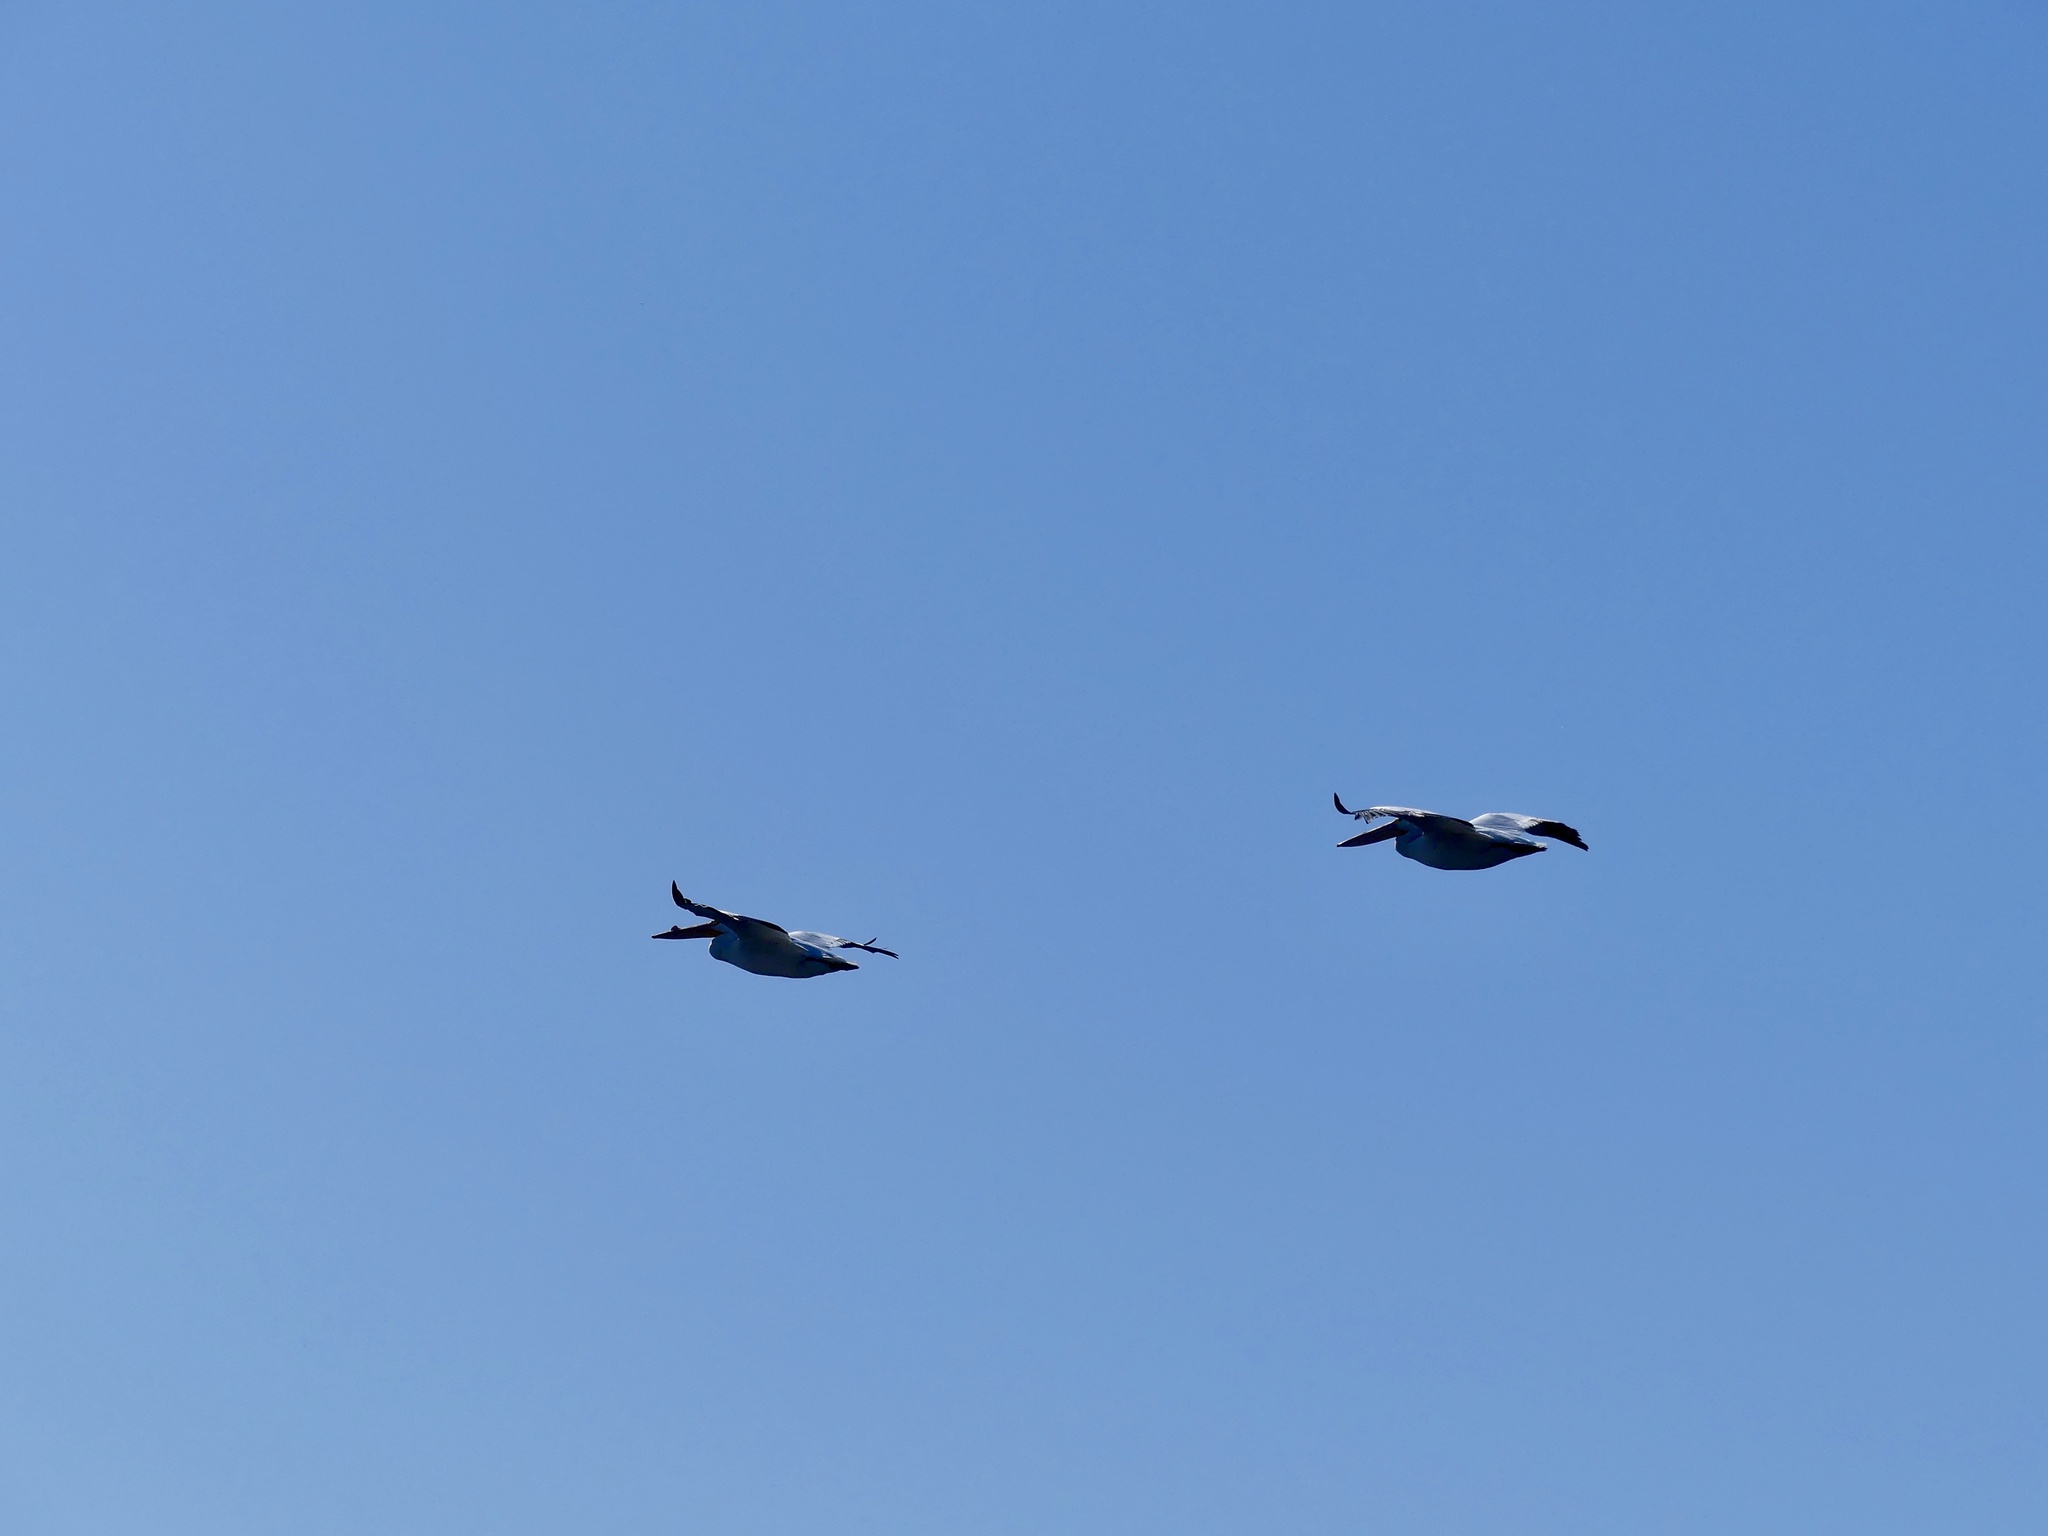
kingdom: Animalia
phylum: Chordata
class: Aves
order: Pelecaniformes
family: Pelecanidae
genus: Pelecanus
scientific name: Pelecanus erythrorhynchos
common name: American white pelican
